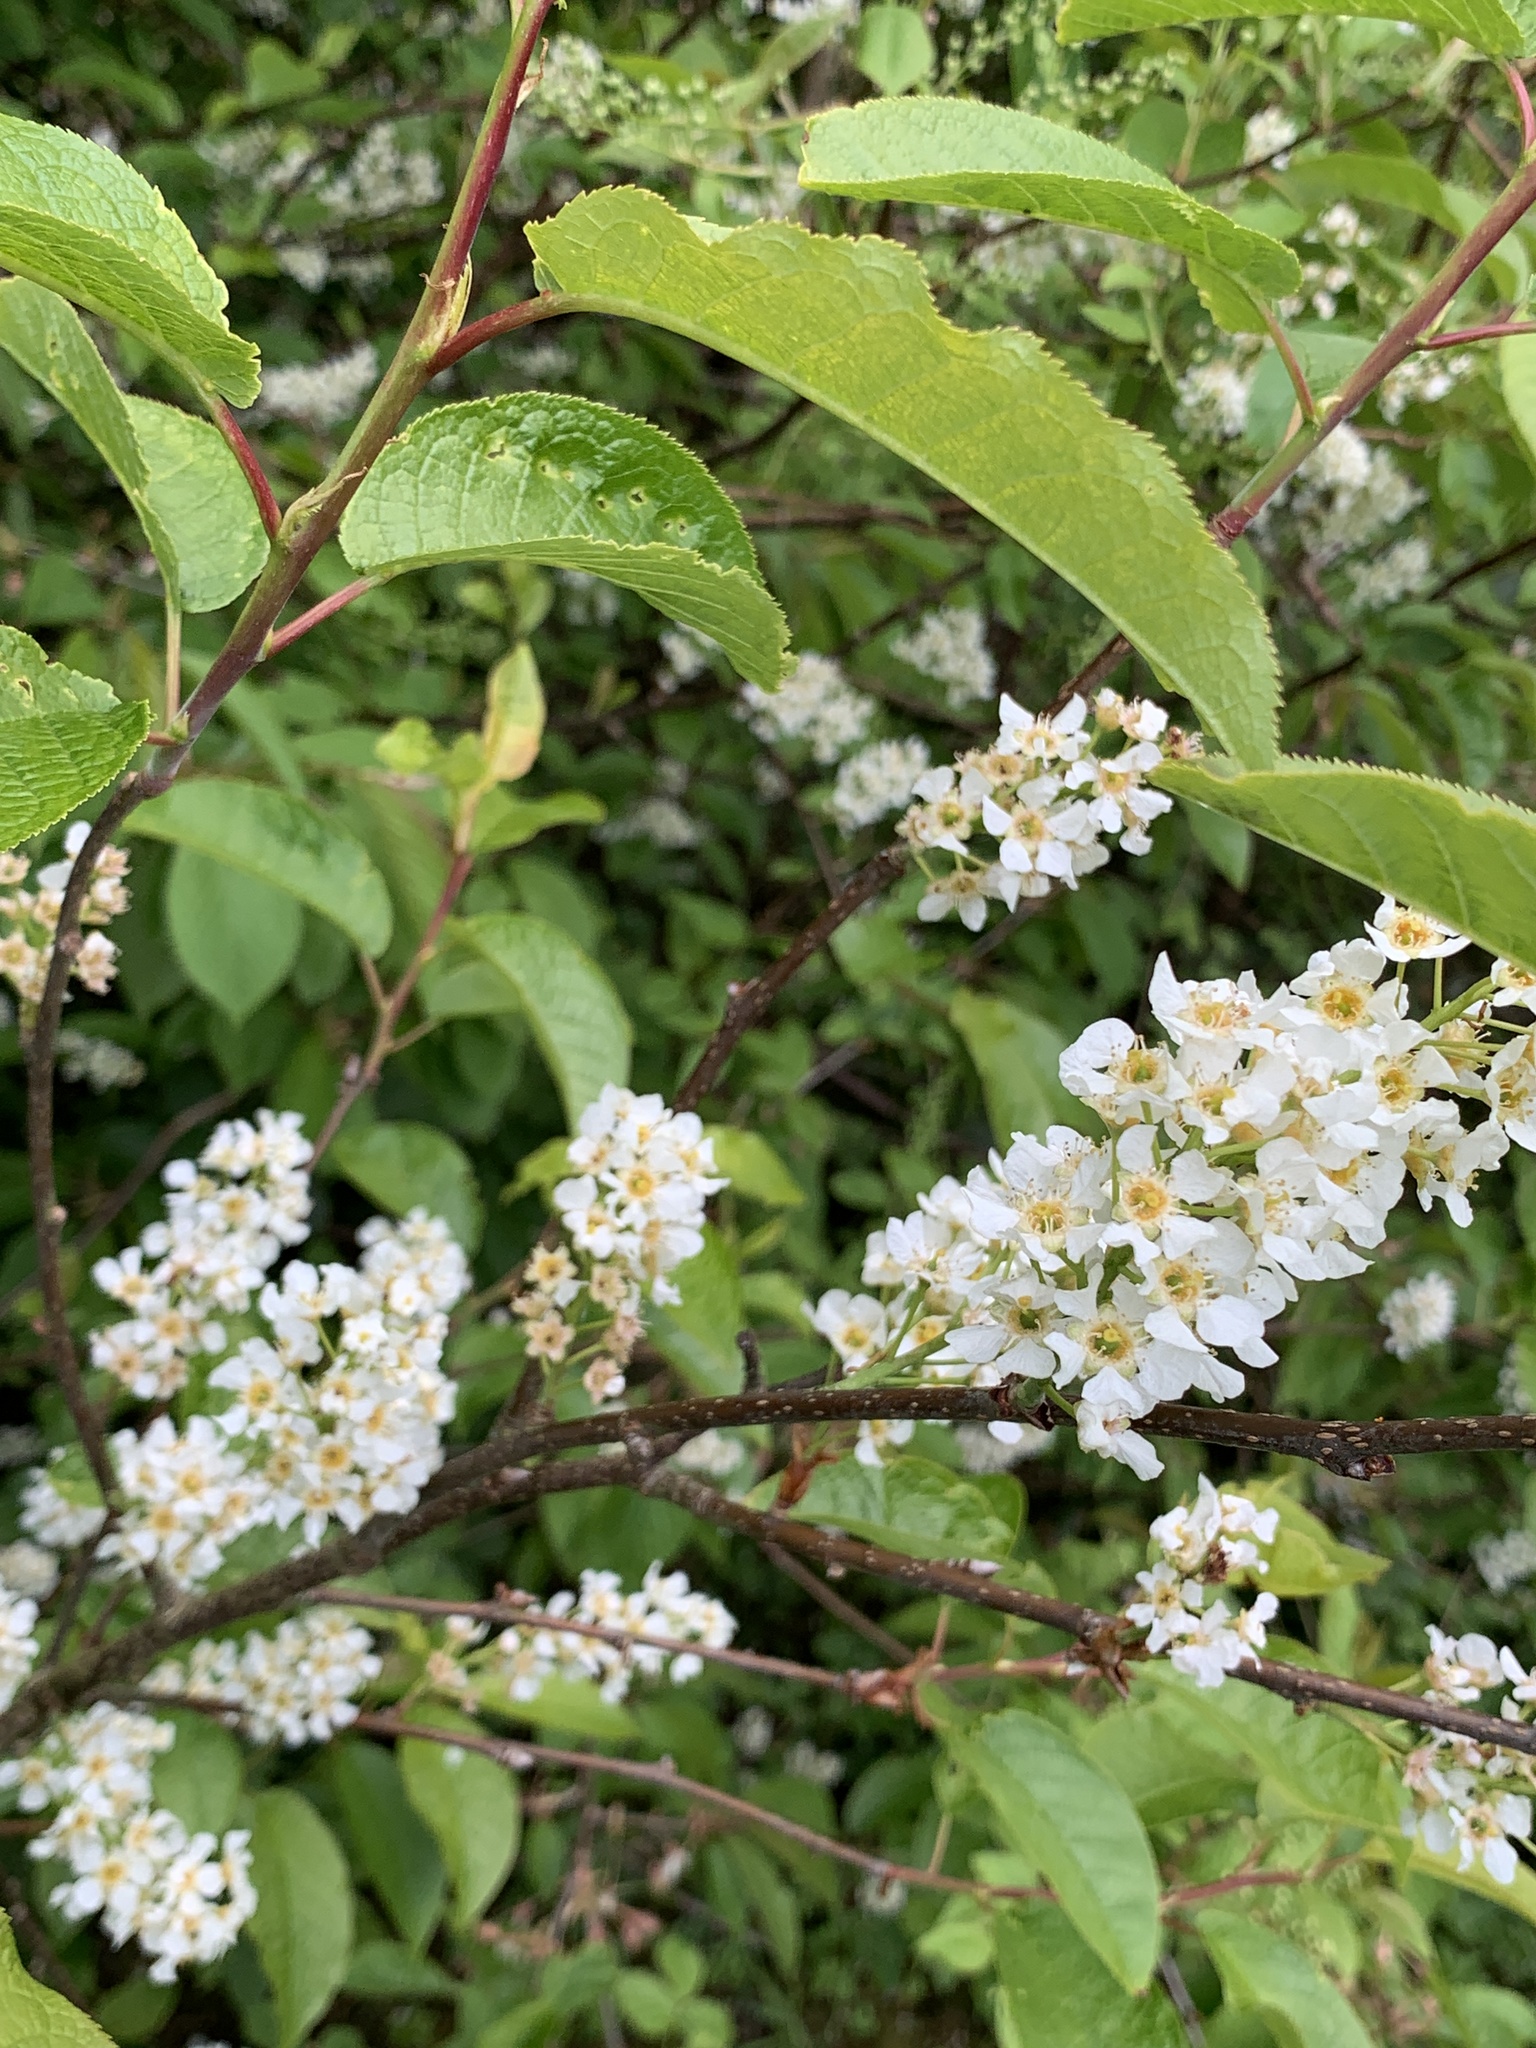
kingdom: Plantae
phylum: Tracheophyta
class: Magnoliopsida
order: Rosales
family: Rosaceae
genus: Prunus
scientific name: Prunus padus
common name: Bird cherry
